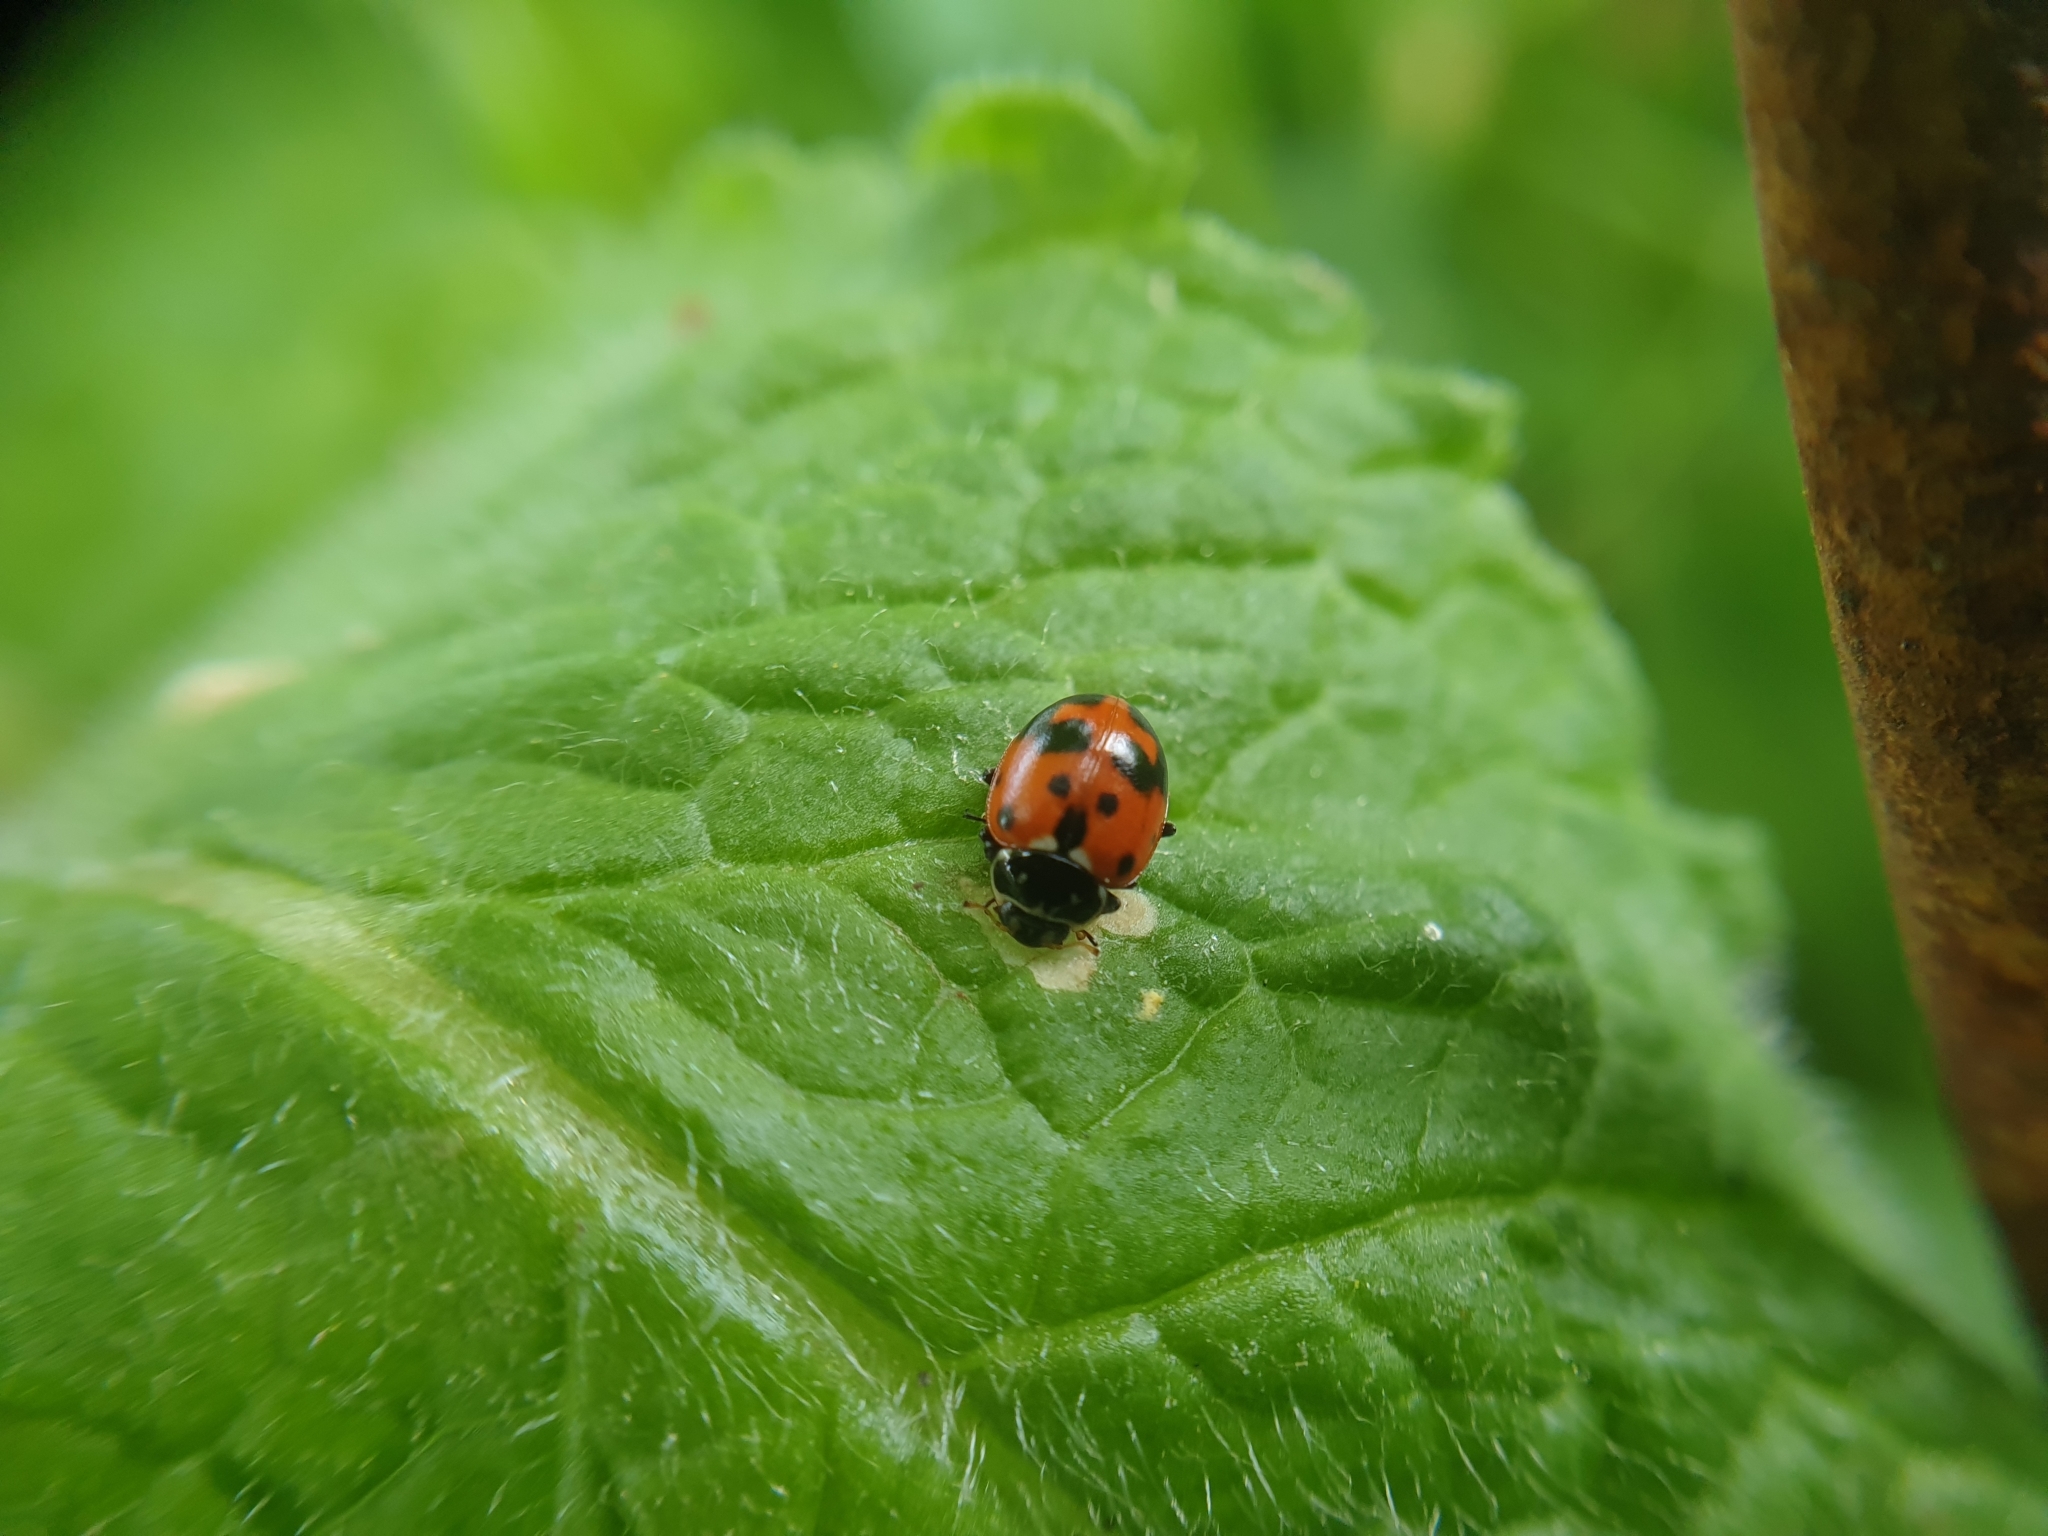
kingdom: Animalia
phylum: Arthropoda
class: Insecta
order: Coleoptera
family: Coccinellidae
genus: Hippodamia
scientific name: Hippodamia variegata
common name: Ladybird beetle
